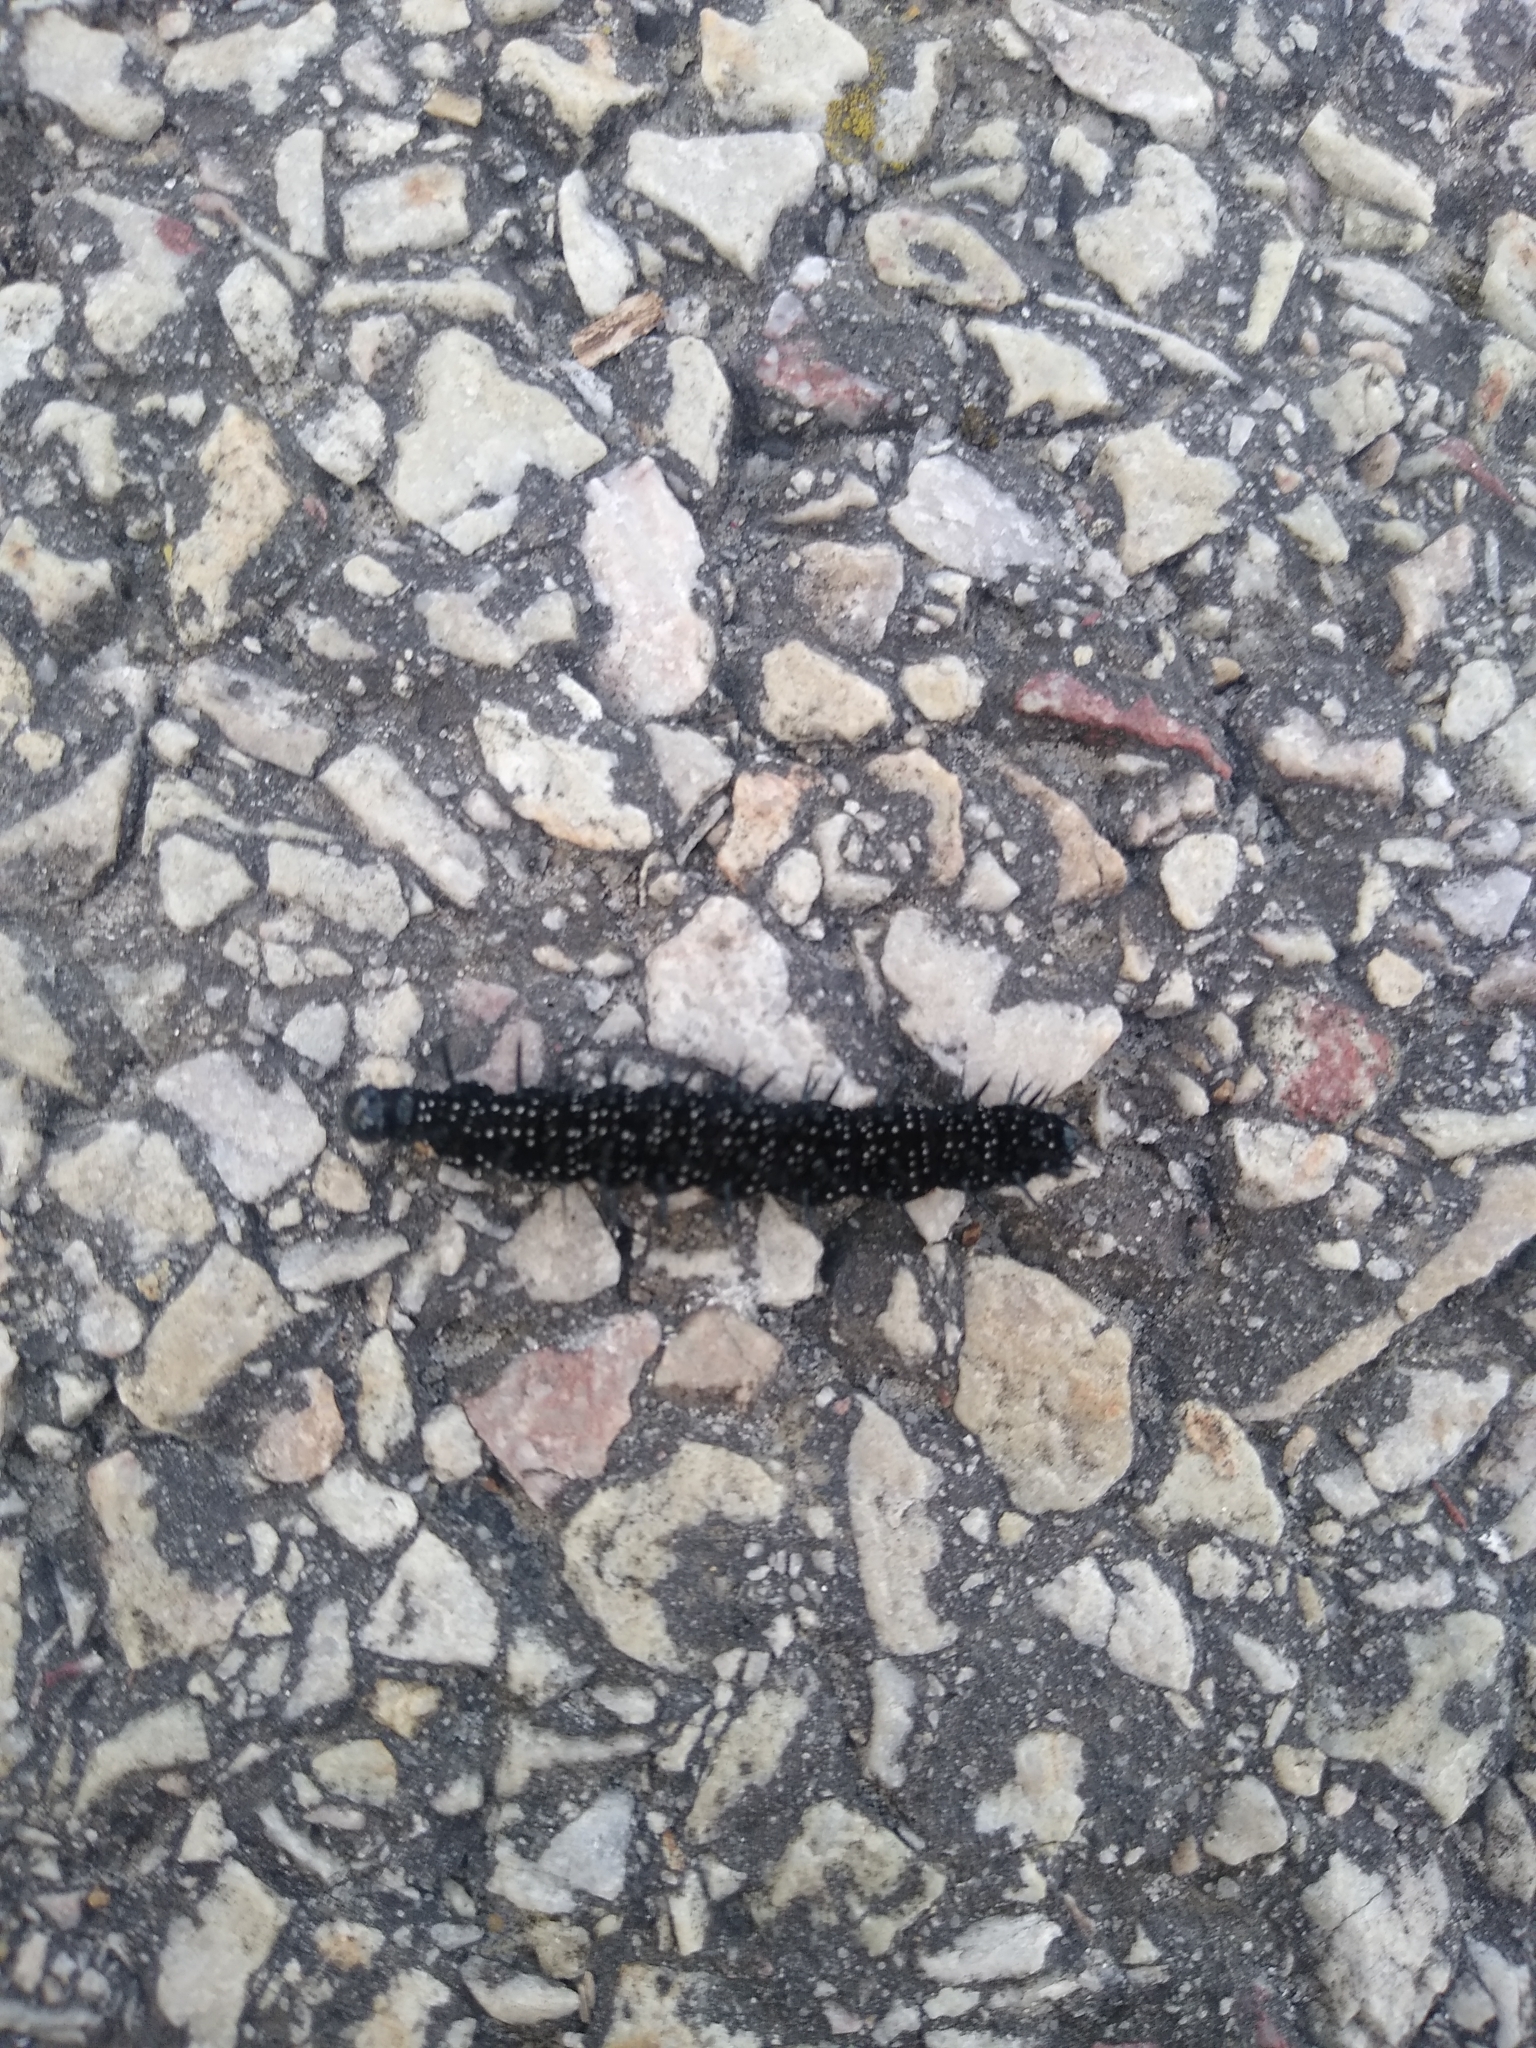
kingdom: Animalia
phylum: Arthropoda
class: Insecta
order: Lepidoptera
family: Nymphalidae
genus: Aglais
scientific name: Aglais io
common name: Peacock
